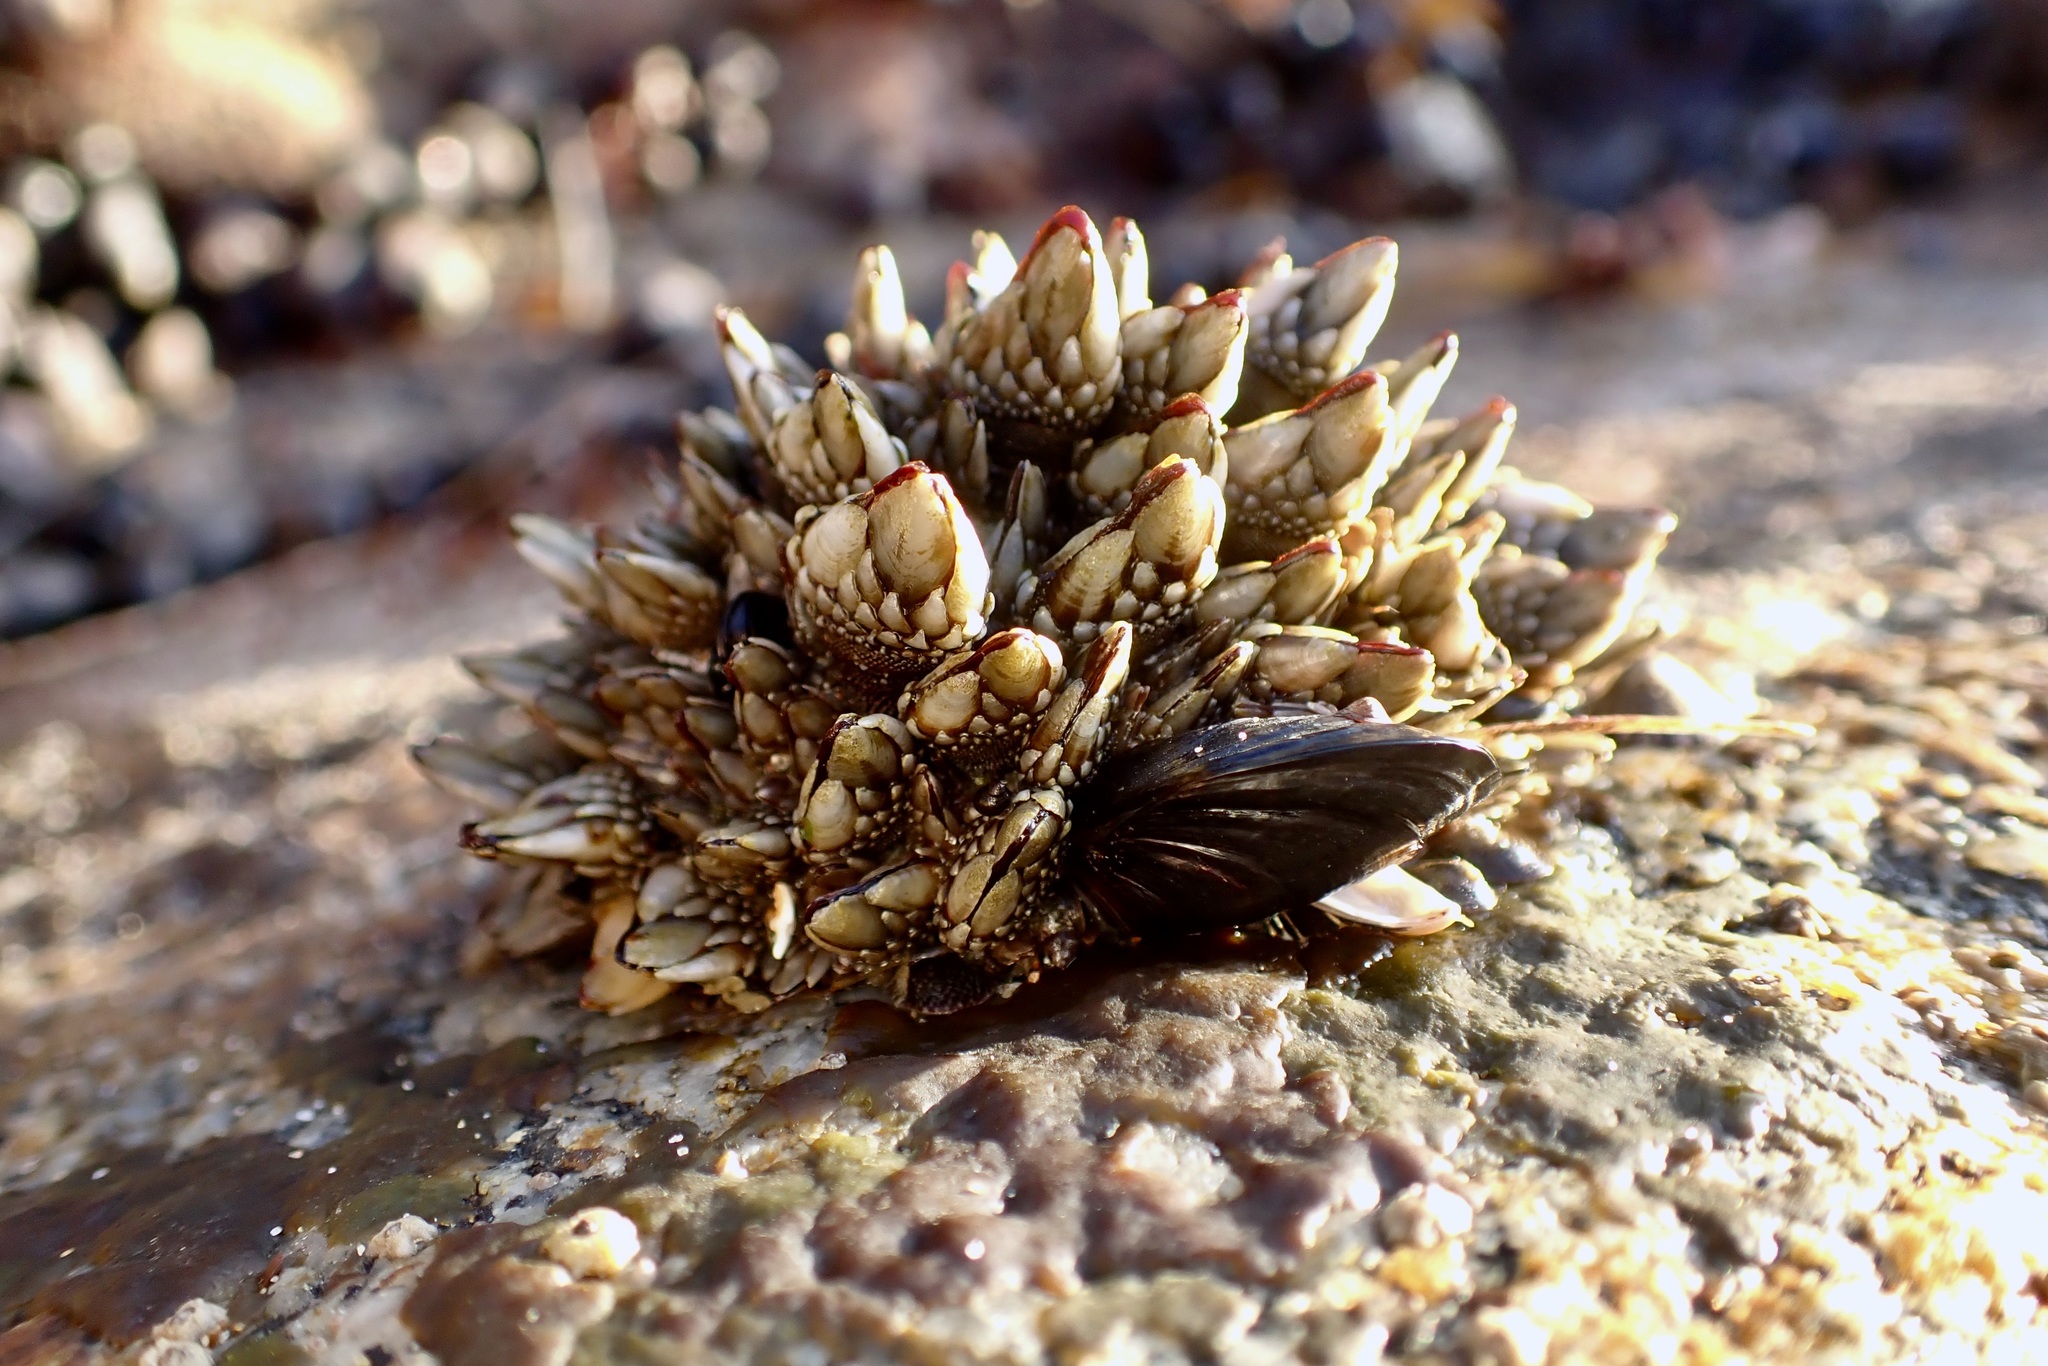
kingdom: Animalia
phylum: Arthropoda
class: Maxillopoda
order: Pedunculata
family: Pollicipedidae
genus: Pollicipes
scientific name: Pollicipes polymerus
